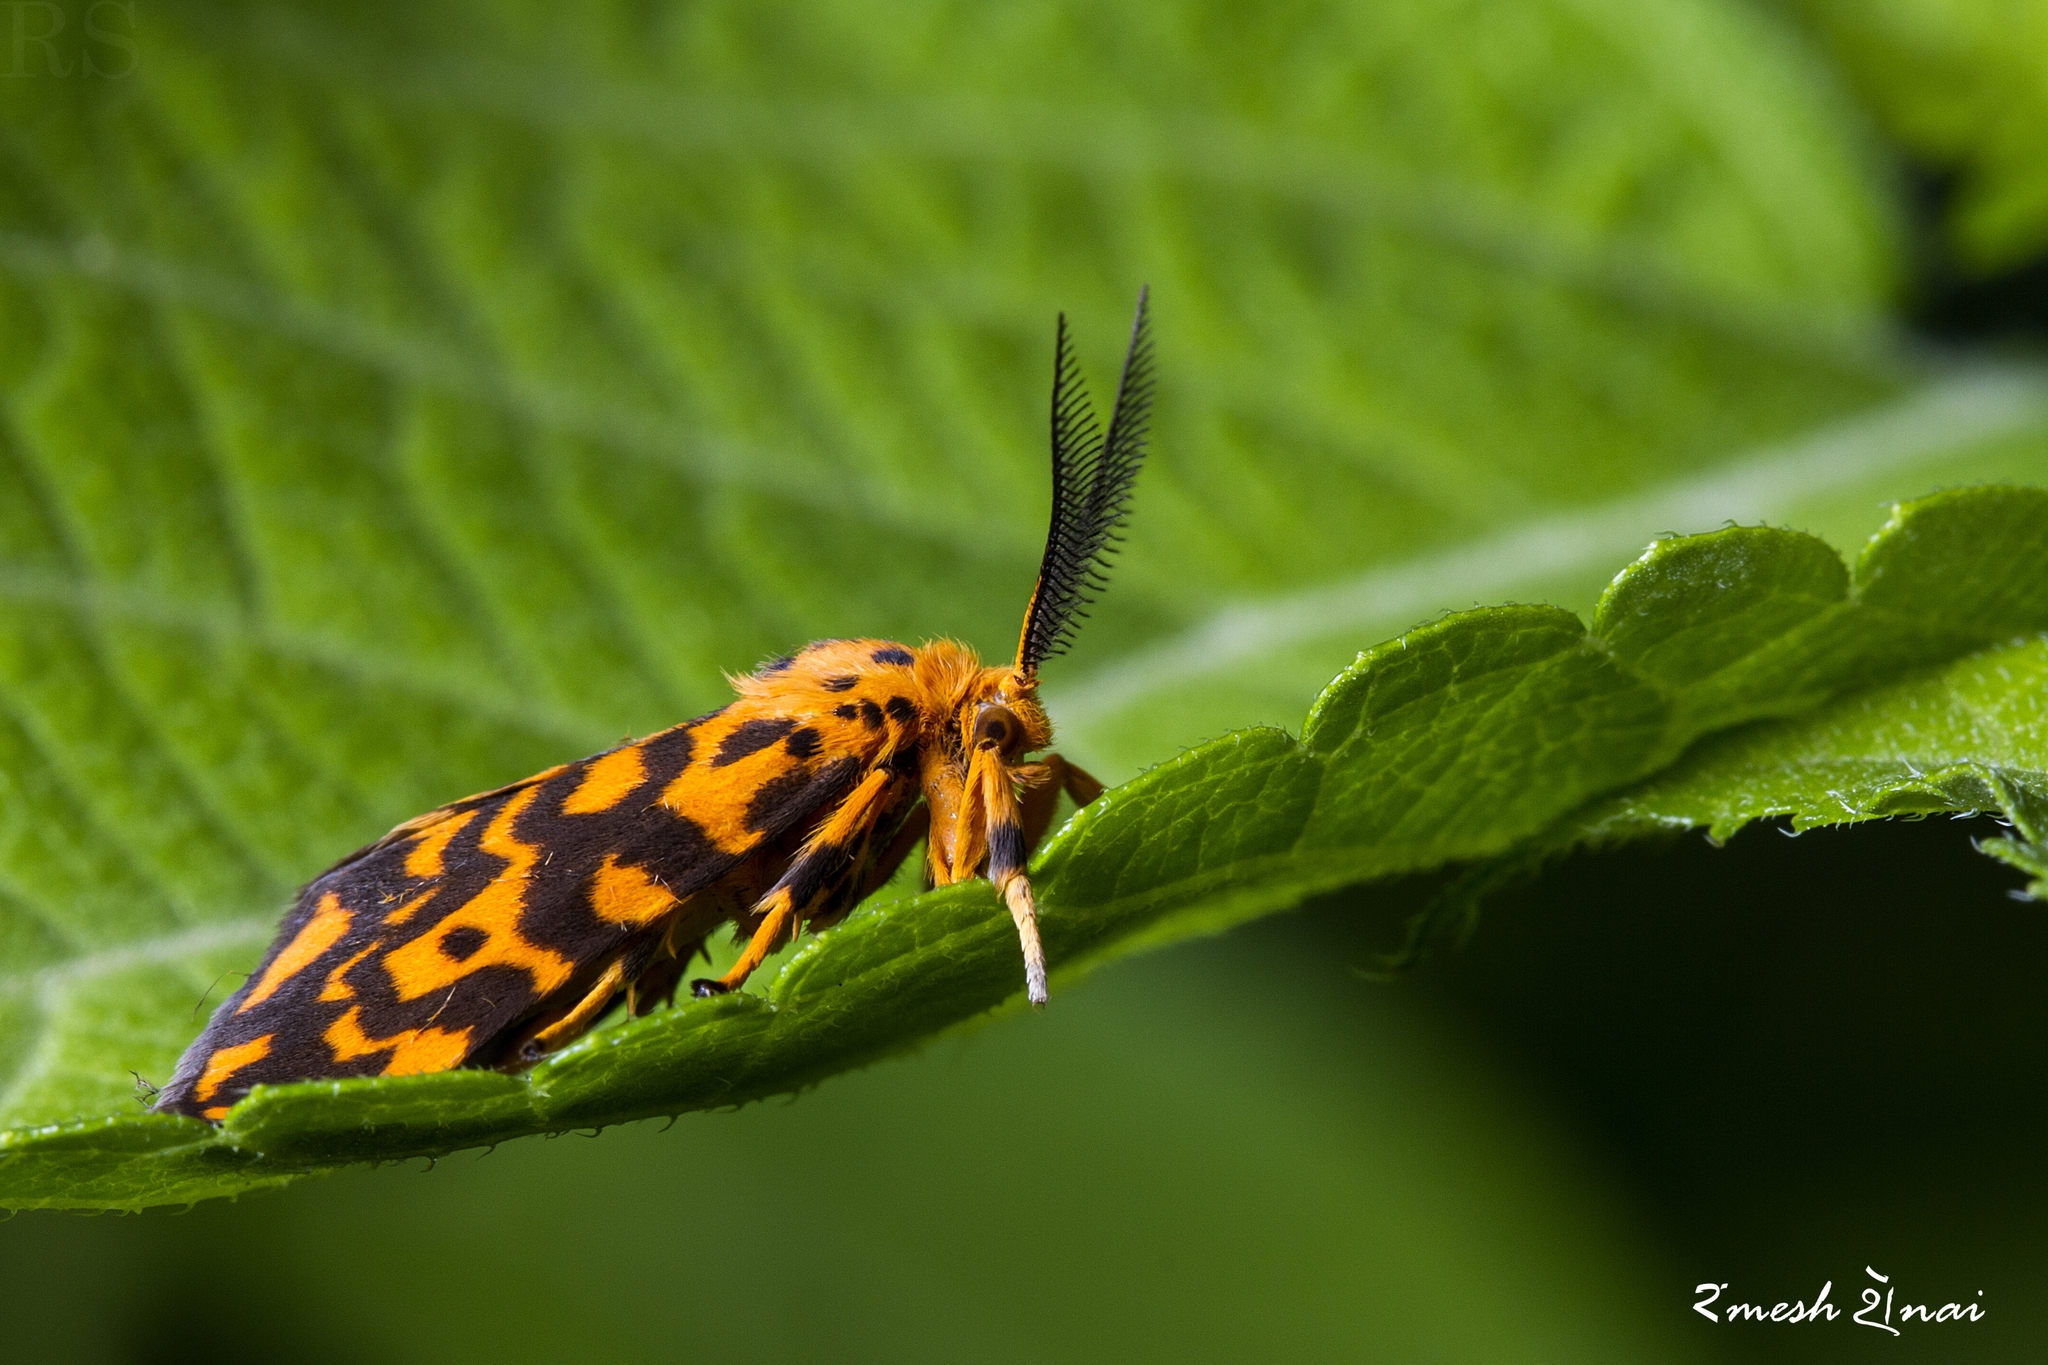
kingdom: Animalia
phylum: Arthropoda
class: Insecta
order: Lepidoptera
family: Erebidae
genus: Nepita
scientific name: Nepita conferta
